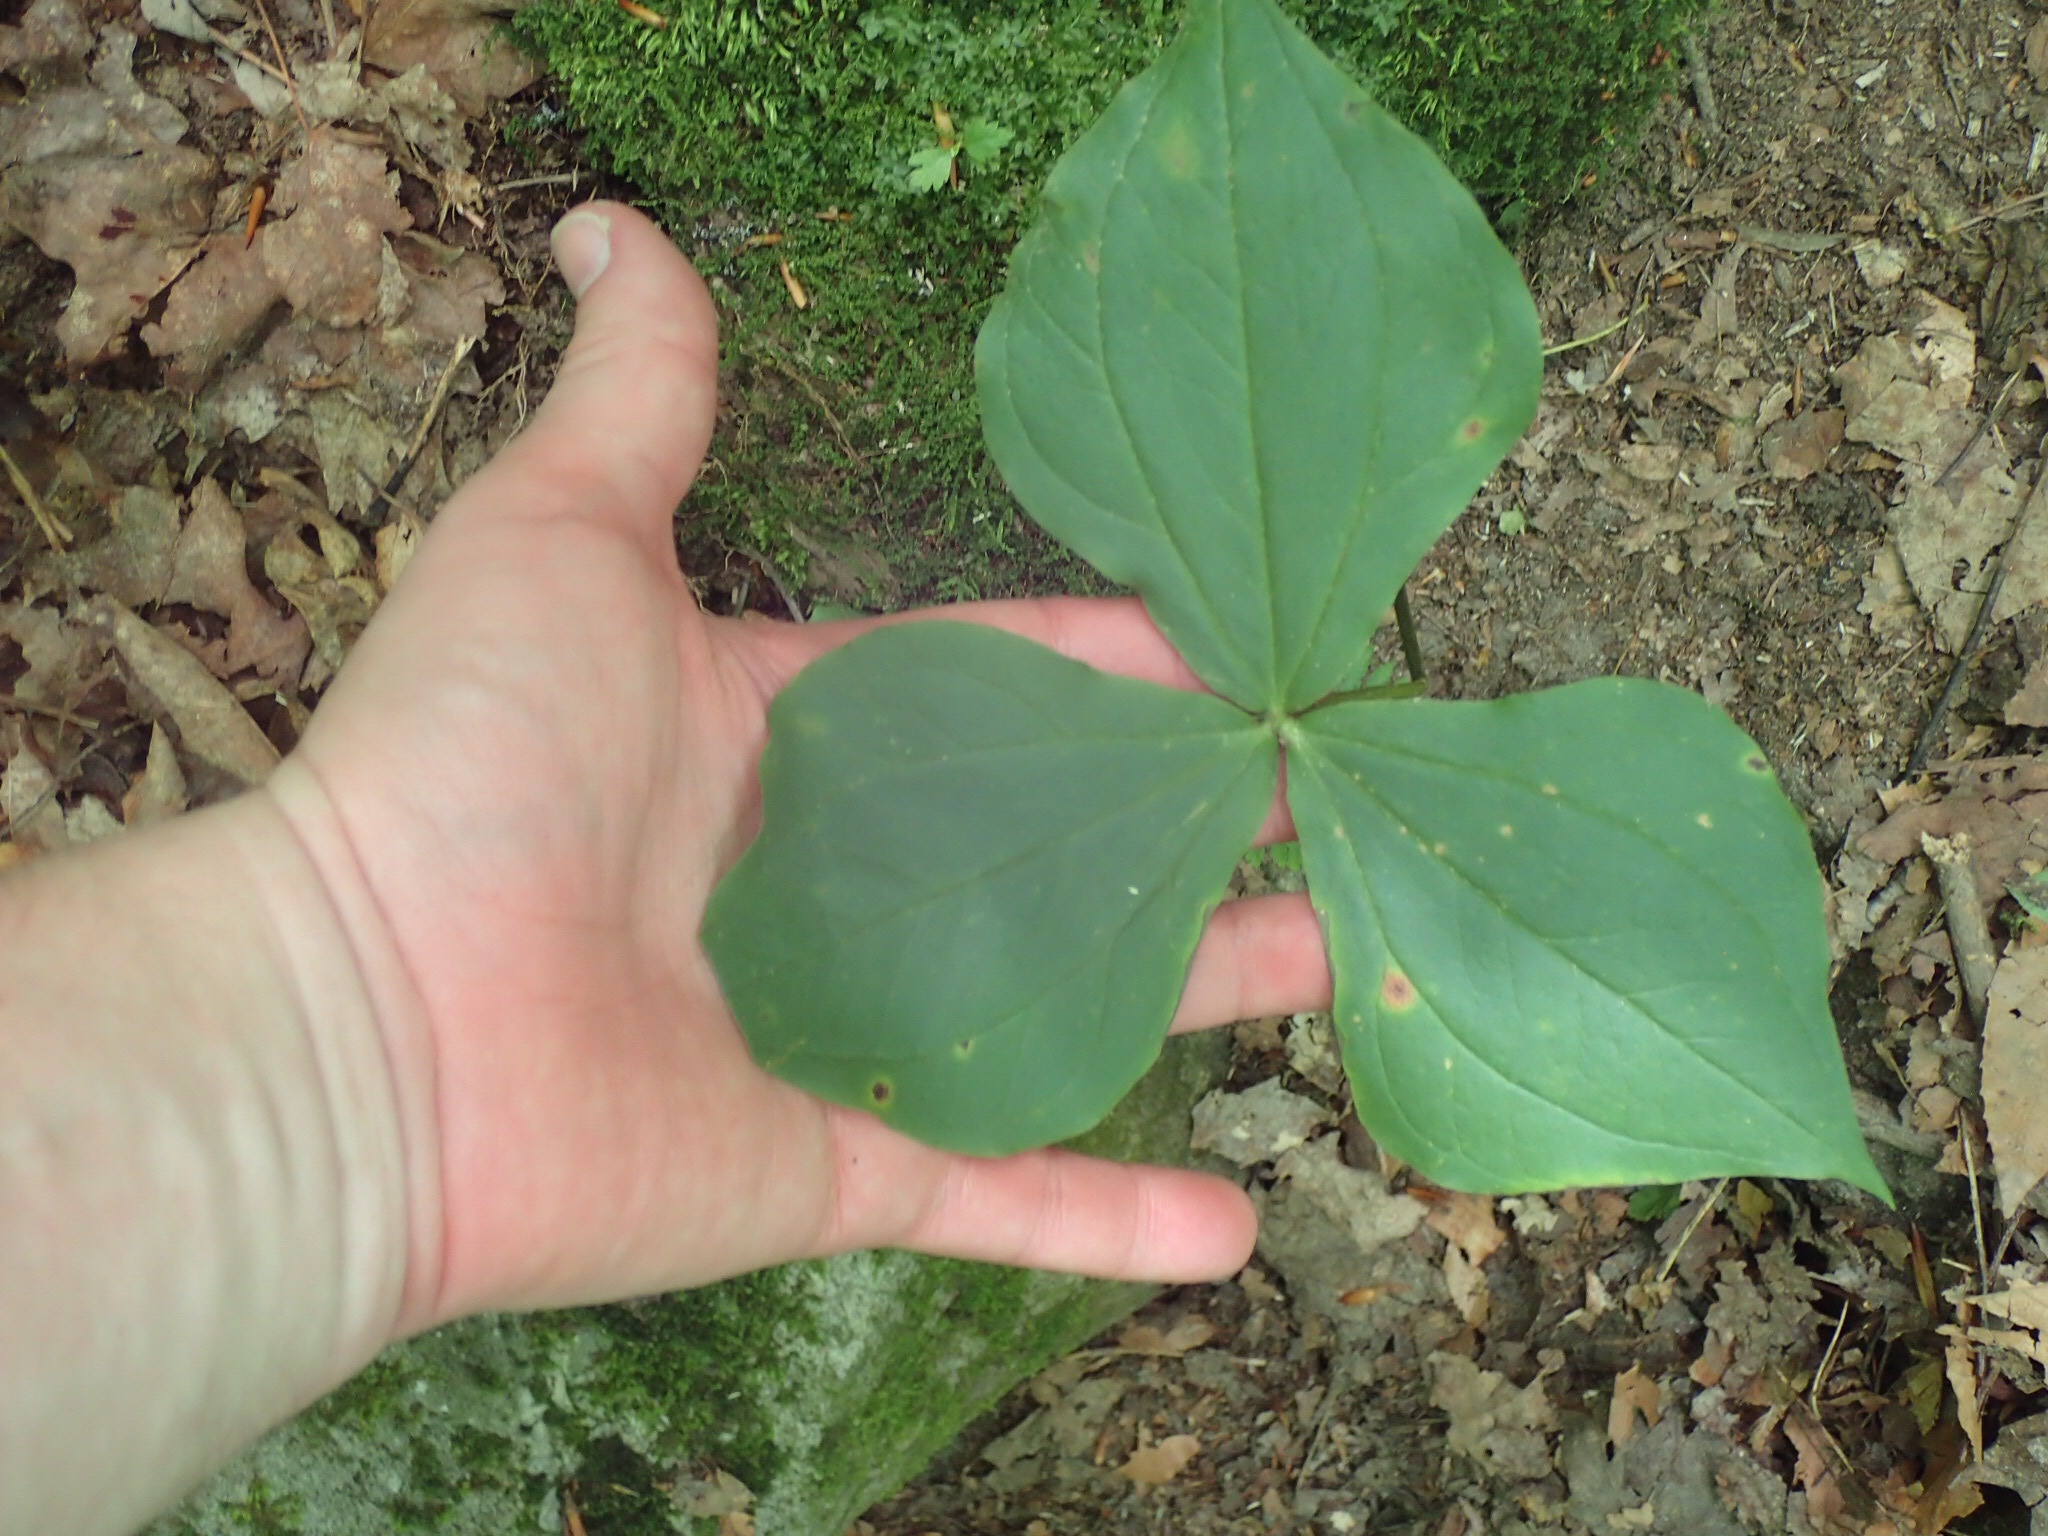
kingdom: Plantae
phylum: Tracheophyta
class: Liliopsida
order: Liliales
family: Melanthiaceae
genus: Trillium
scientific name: Trillium
